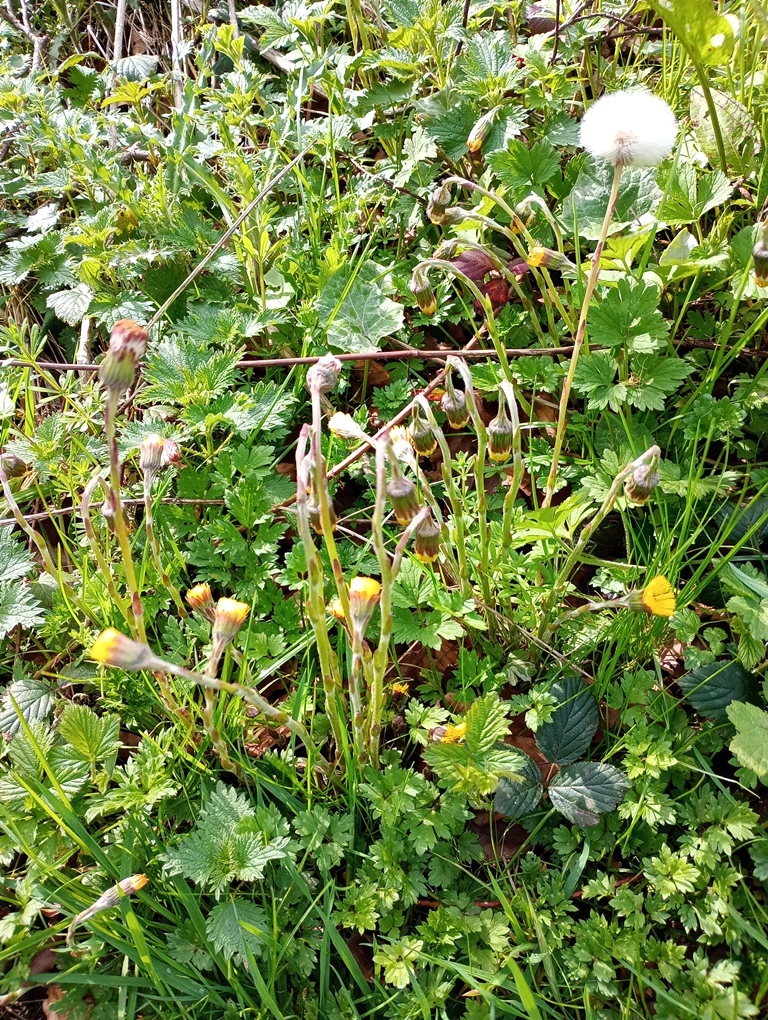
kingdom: Plantae
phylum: Tracheophyta
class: Magnoliopsida
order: Asterales
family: Asteraceae
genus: Tussilago
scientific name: Tussilago farfara
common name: Coltsfoot
